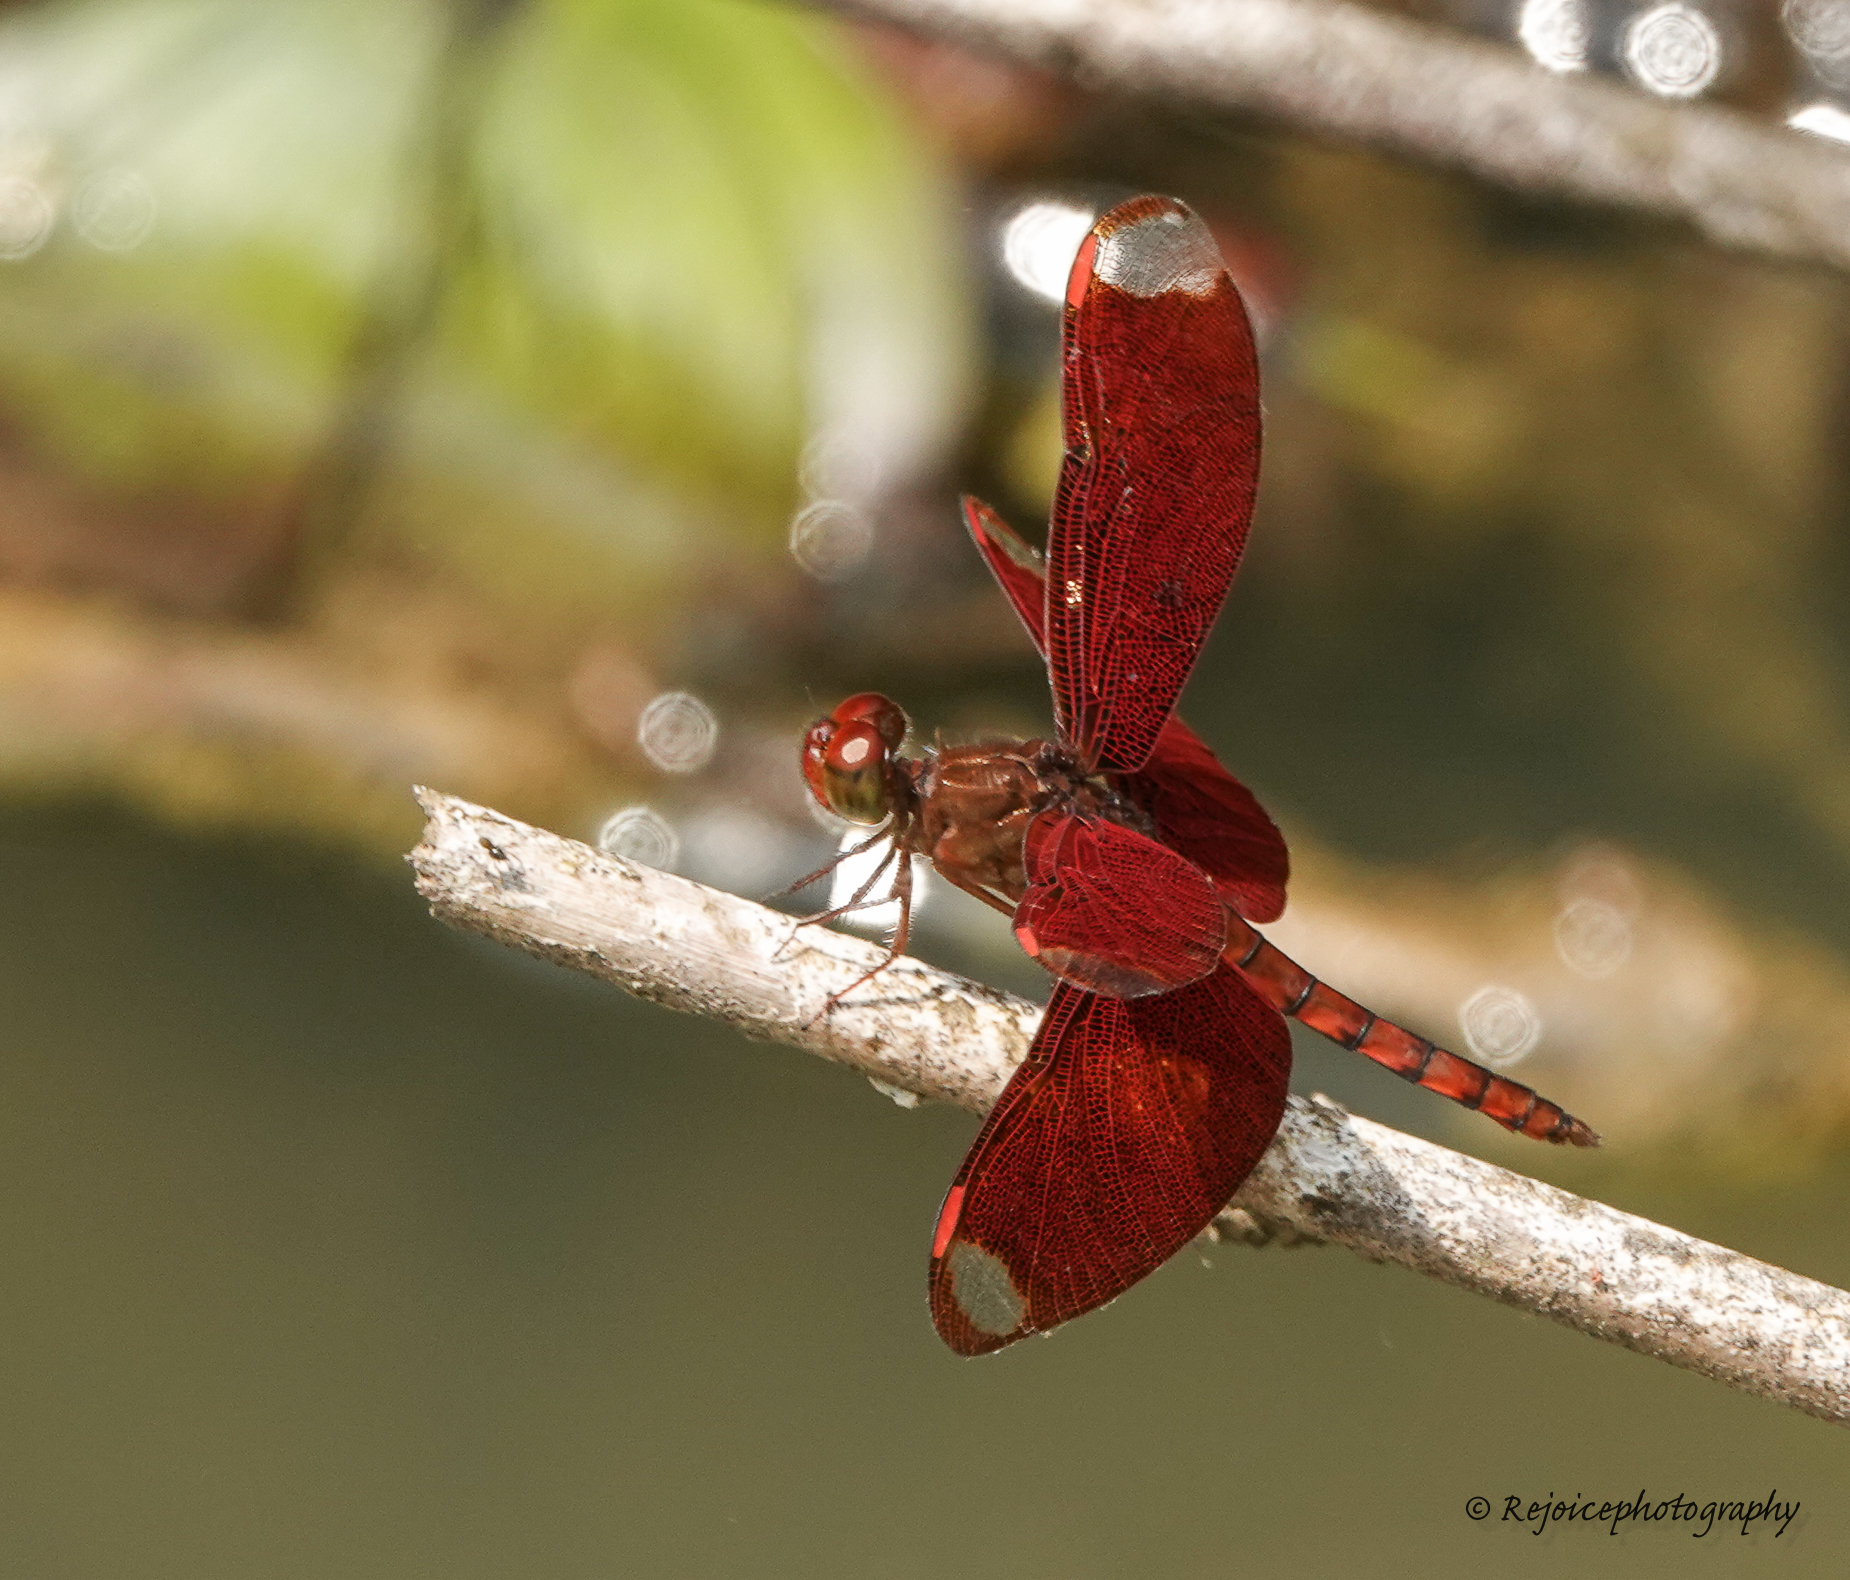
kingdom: Animalia
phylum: Arthropoda
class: Insecta
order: Odonata
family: Libellulidae
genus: Neurothemis
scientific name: Neurothemis fulvia
